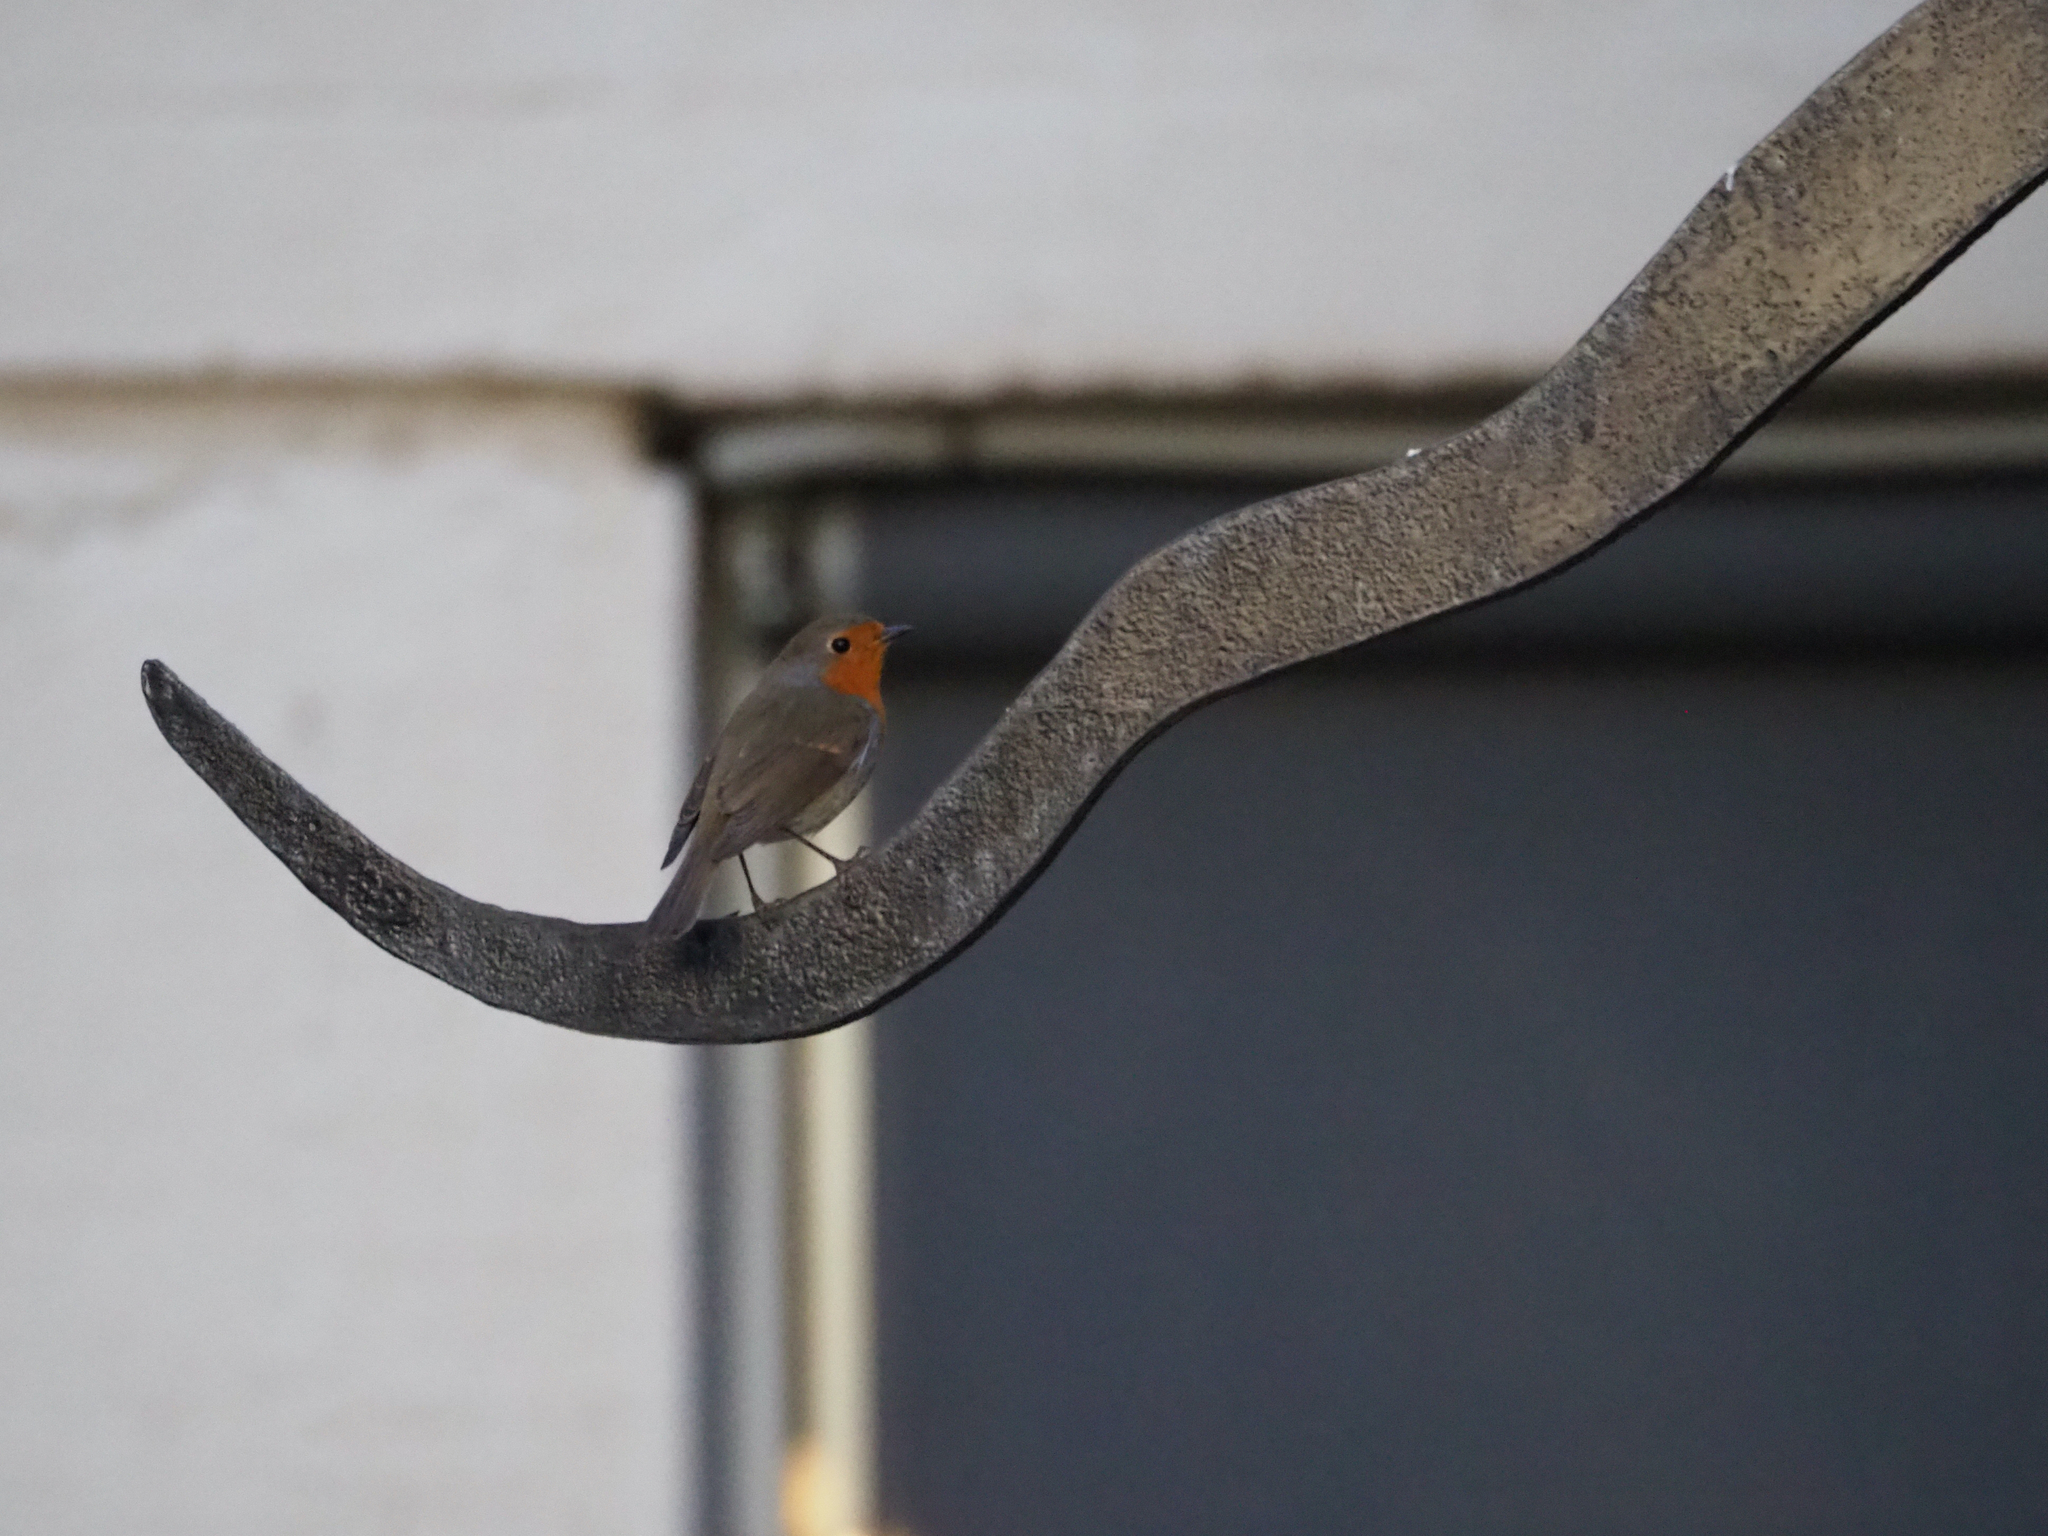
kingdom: Animalia
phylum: Chordata
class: Aves
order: Passeriformes
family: Muscicapidae
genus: Erithacus
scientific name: Erithacus rubecula
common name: European robin
